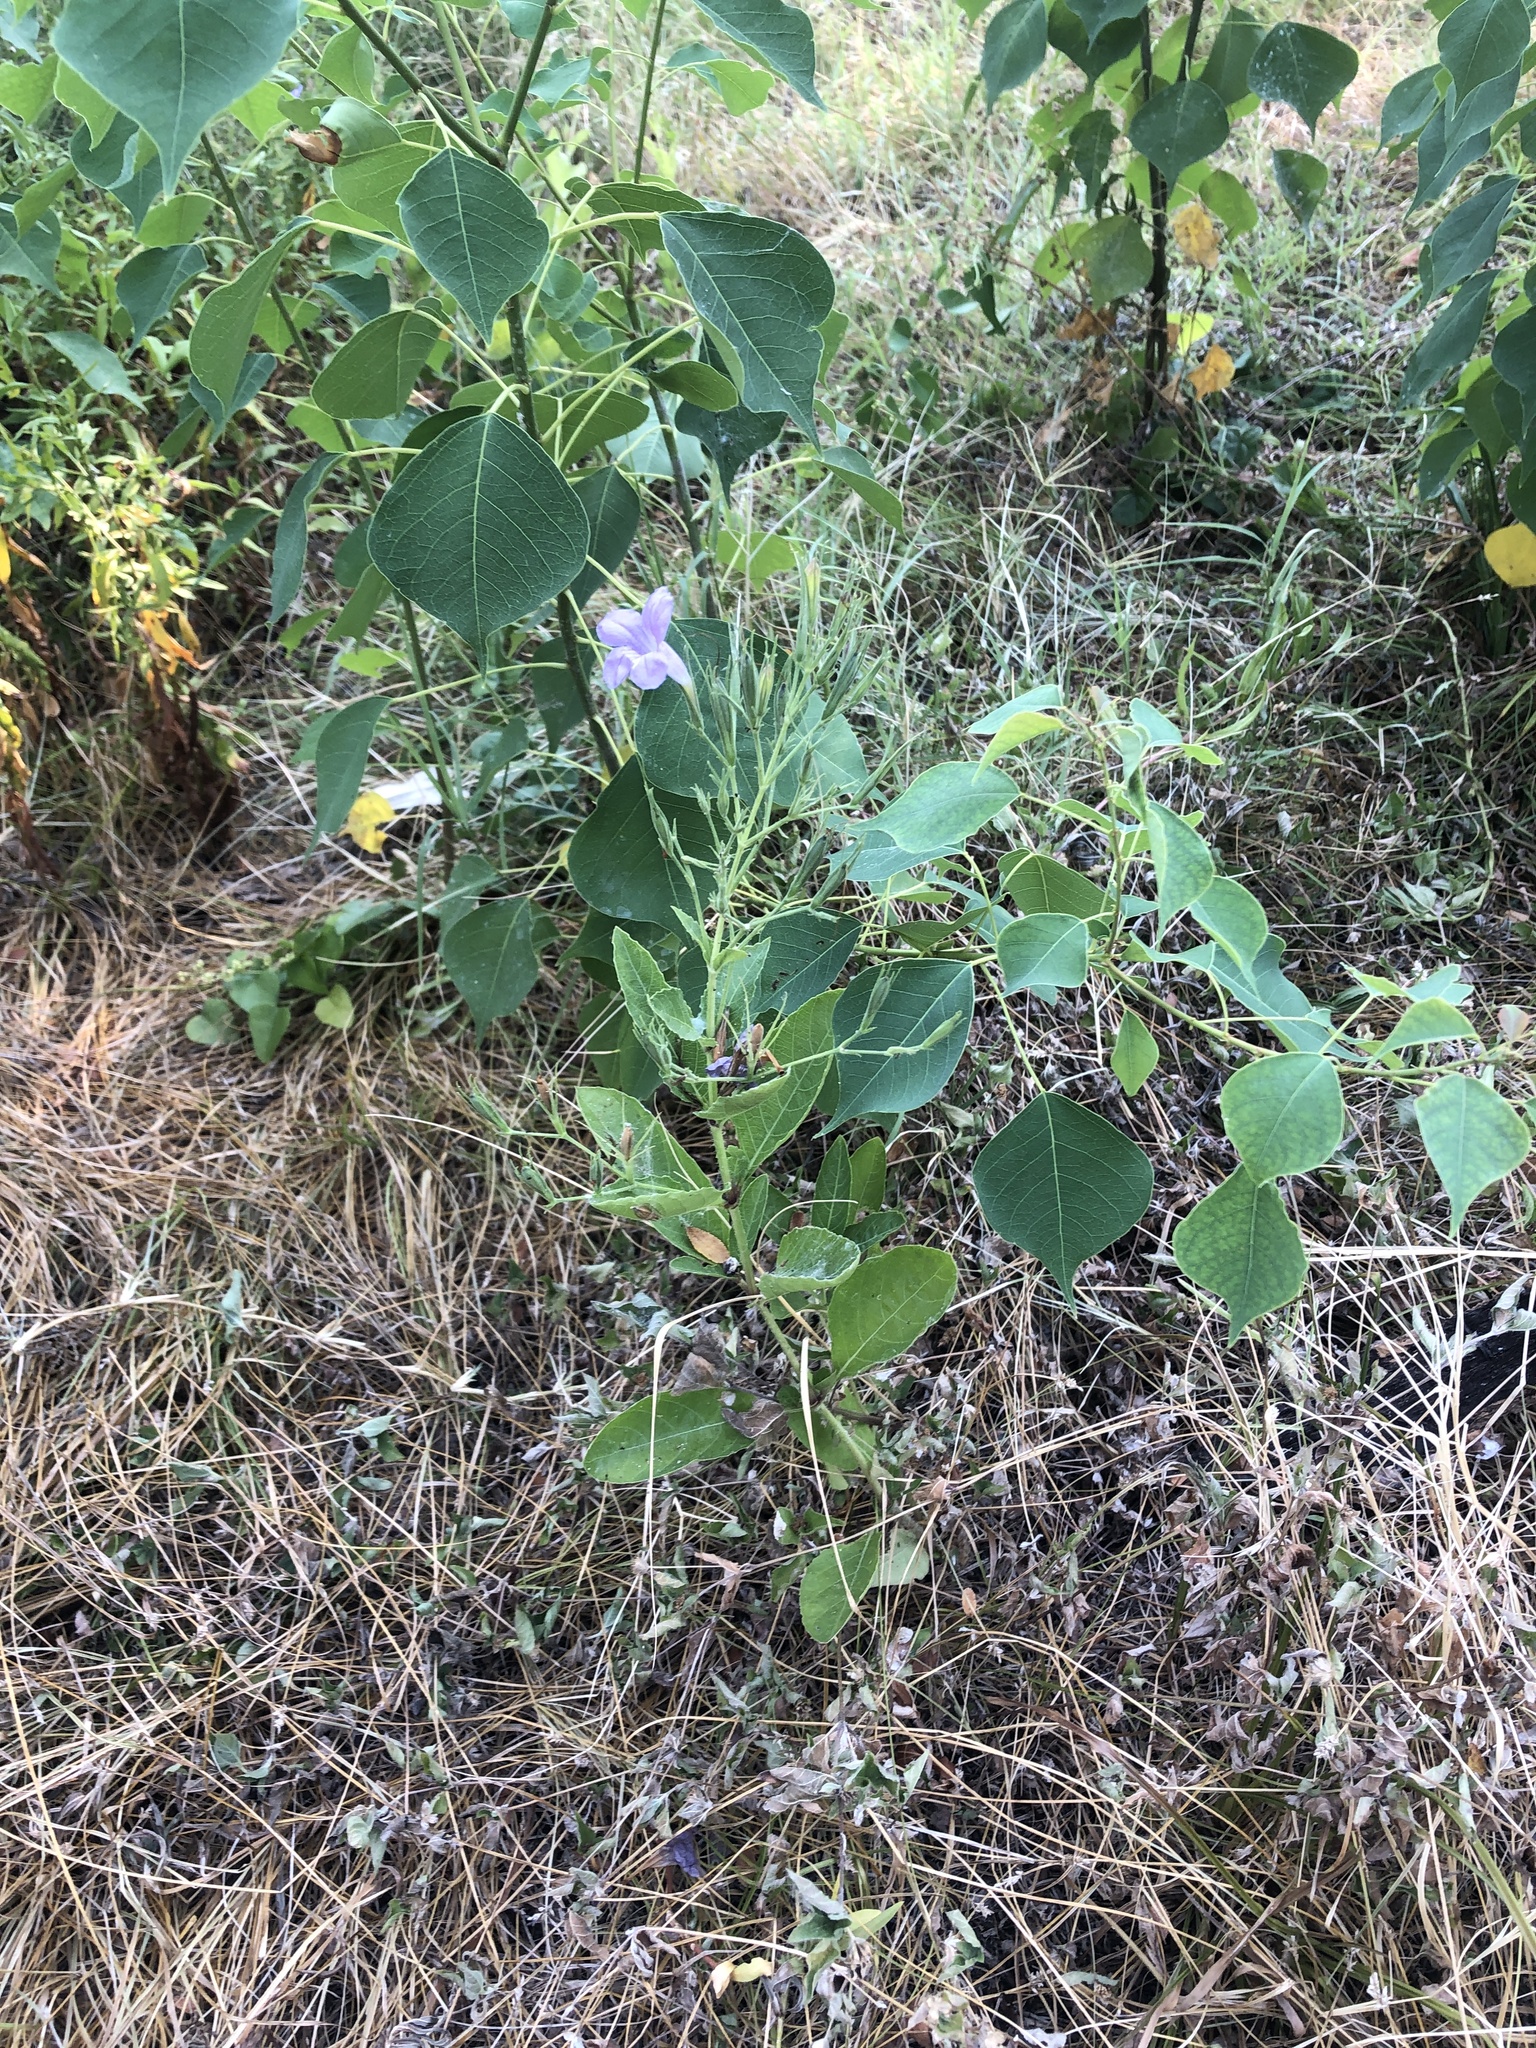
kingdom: Plantae
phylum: Tracheophyta
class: Magnoliopsida
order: Lamiales
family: Acanthaceae
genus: Ruellia
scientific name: Ruellia ciliatiflora
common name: Hairyflower wild petunia
